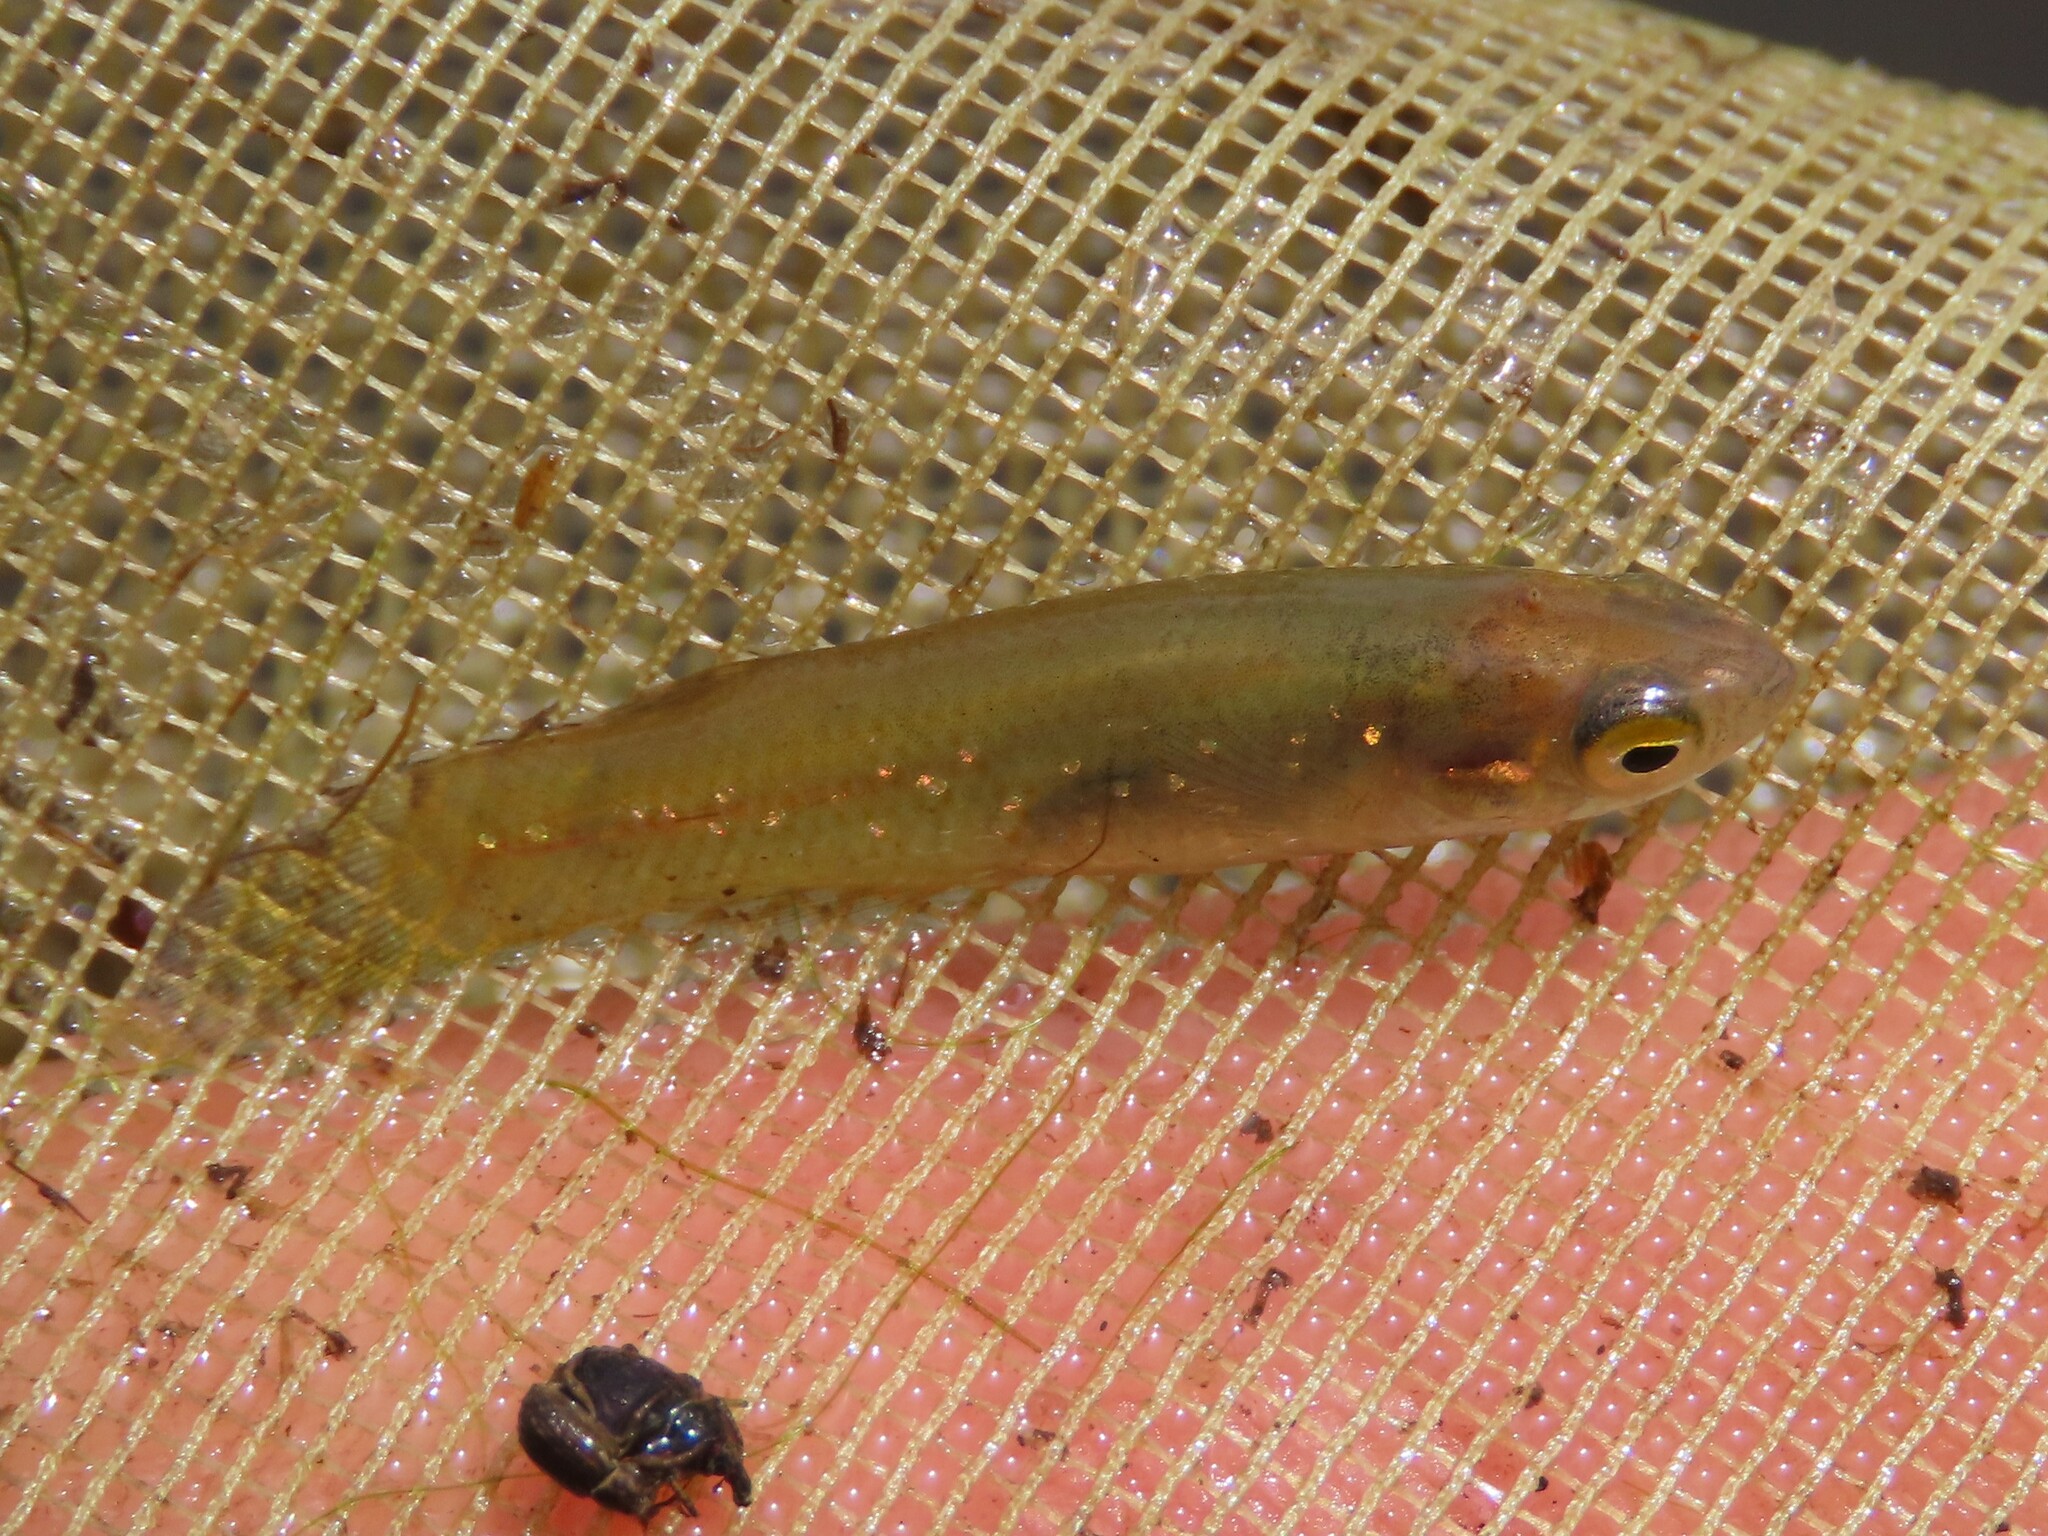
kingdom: Animalia
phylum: Chordata
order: Cyprinodontiformes
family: Fundulidae
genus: Fundulus
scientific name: Fundulus chrysotus
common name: Golden topminnow
